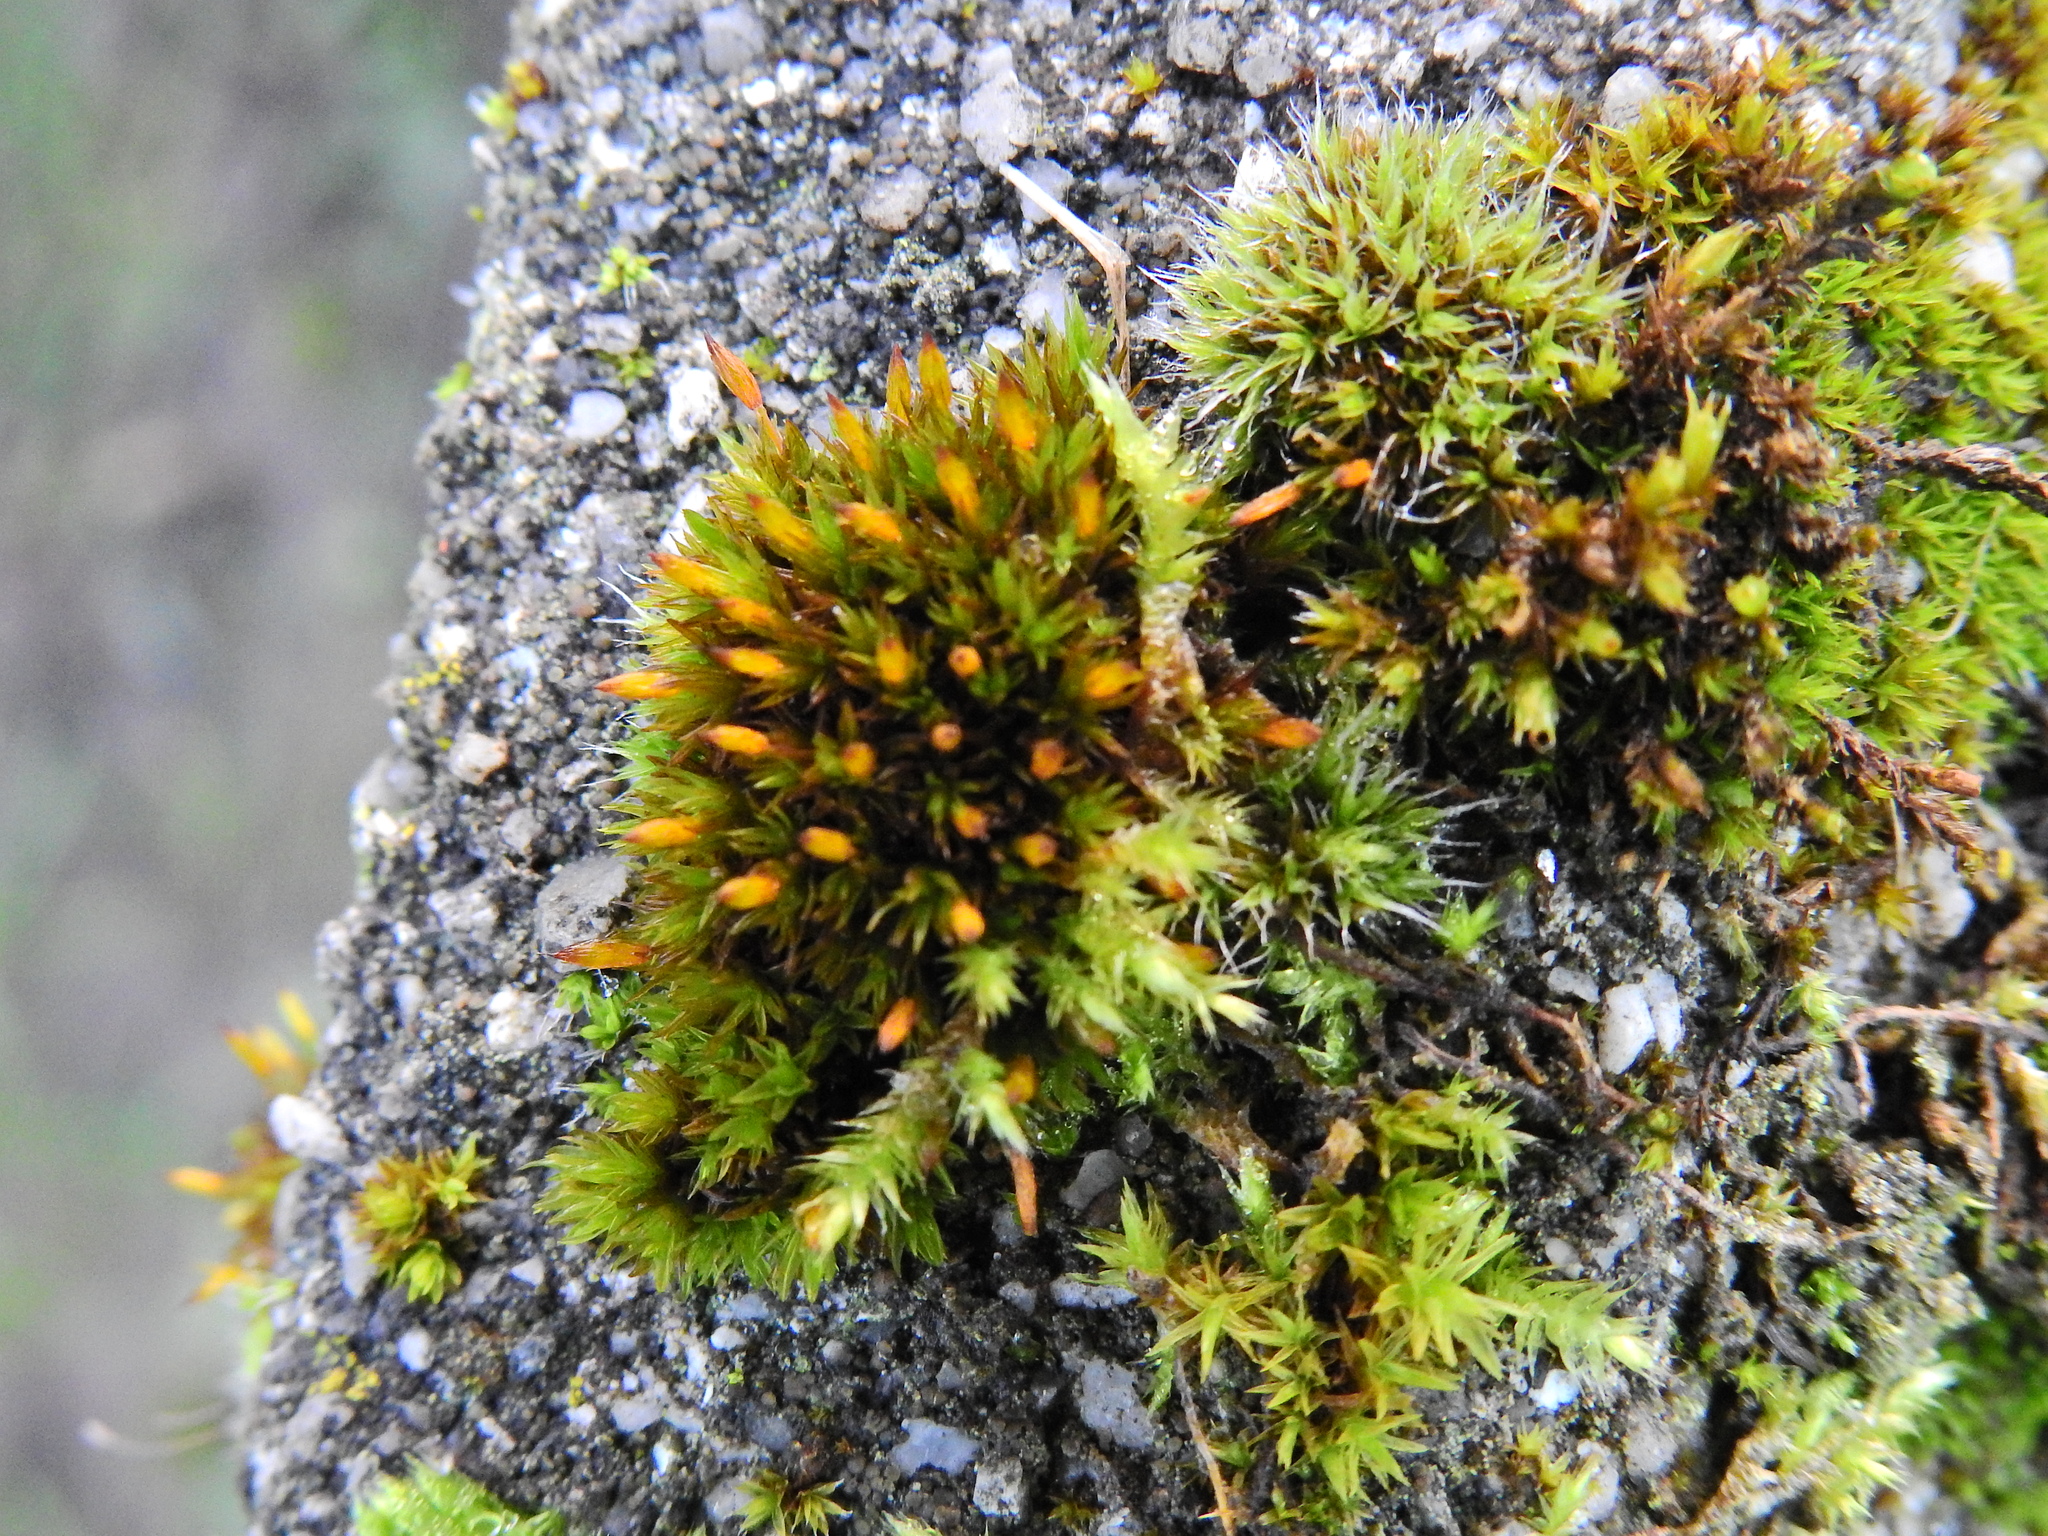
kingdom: Plantae
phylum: Bryophyta
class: Bryopsida
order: Orthotrichales
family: Orthotrichaceae
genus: Orthotrichum
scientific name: Orthotrichum anomalum
